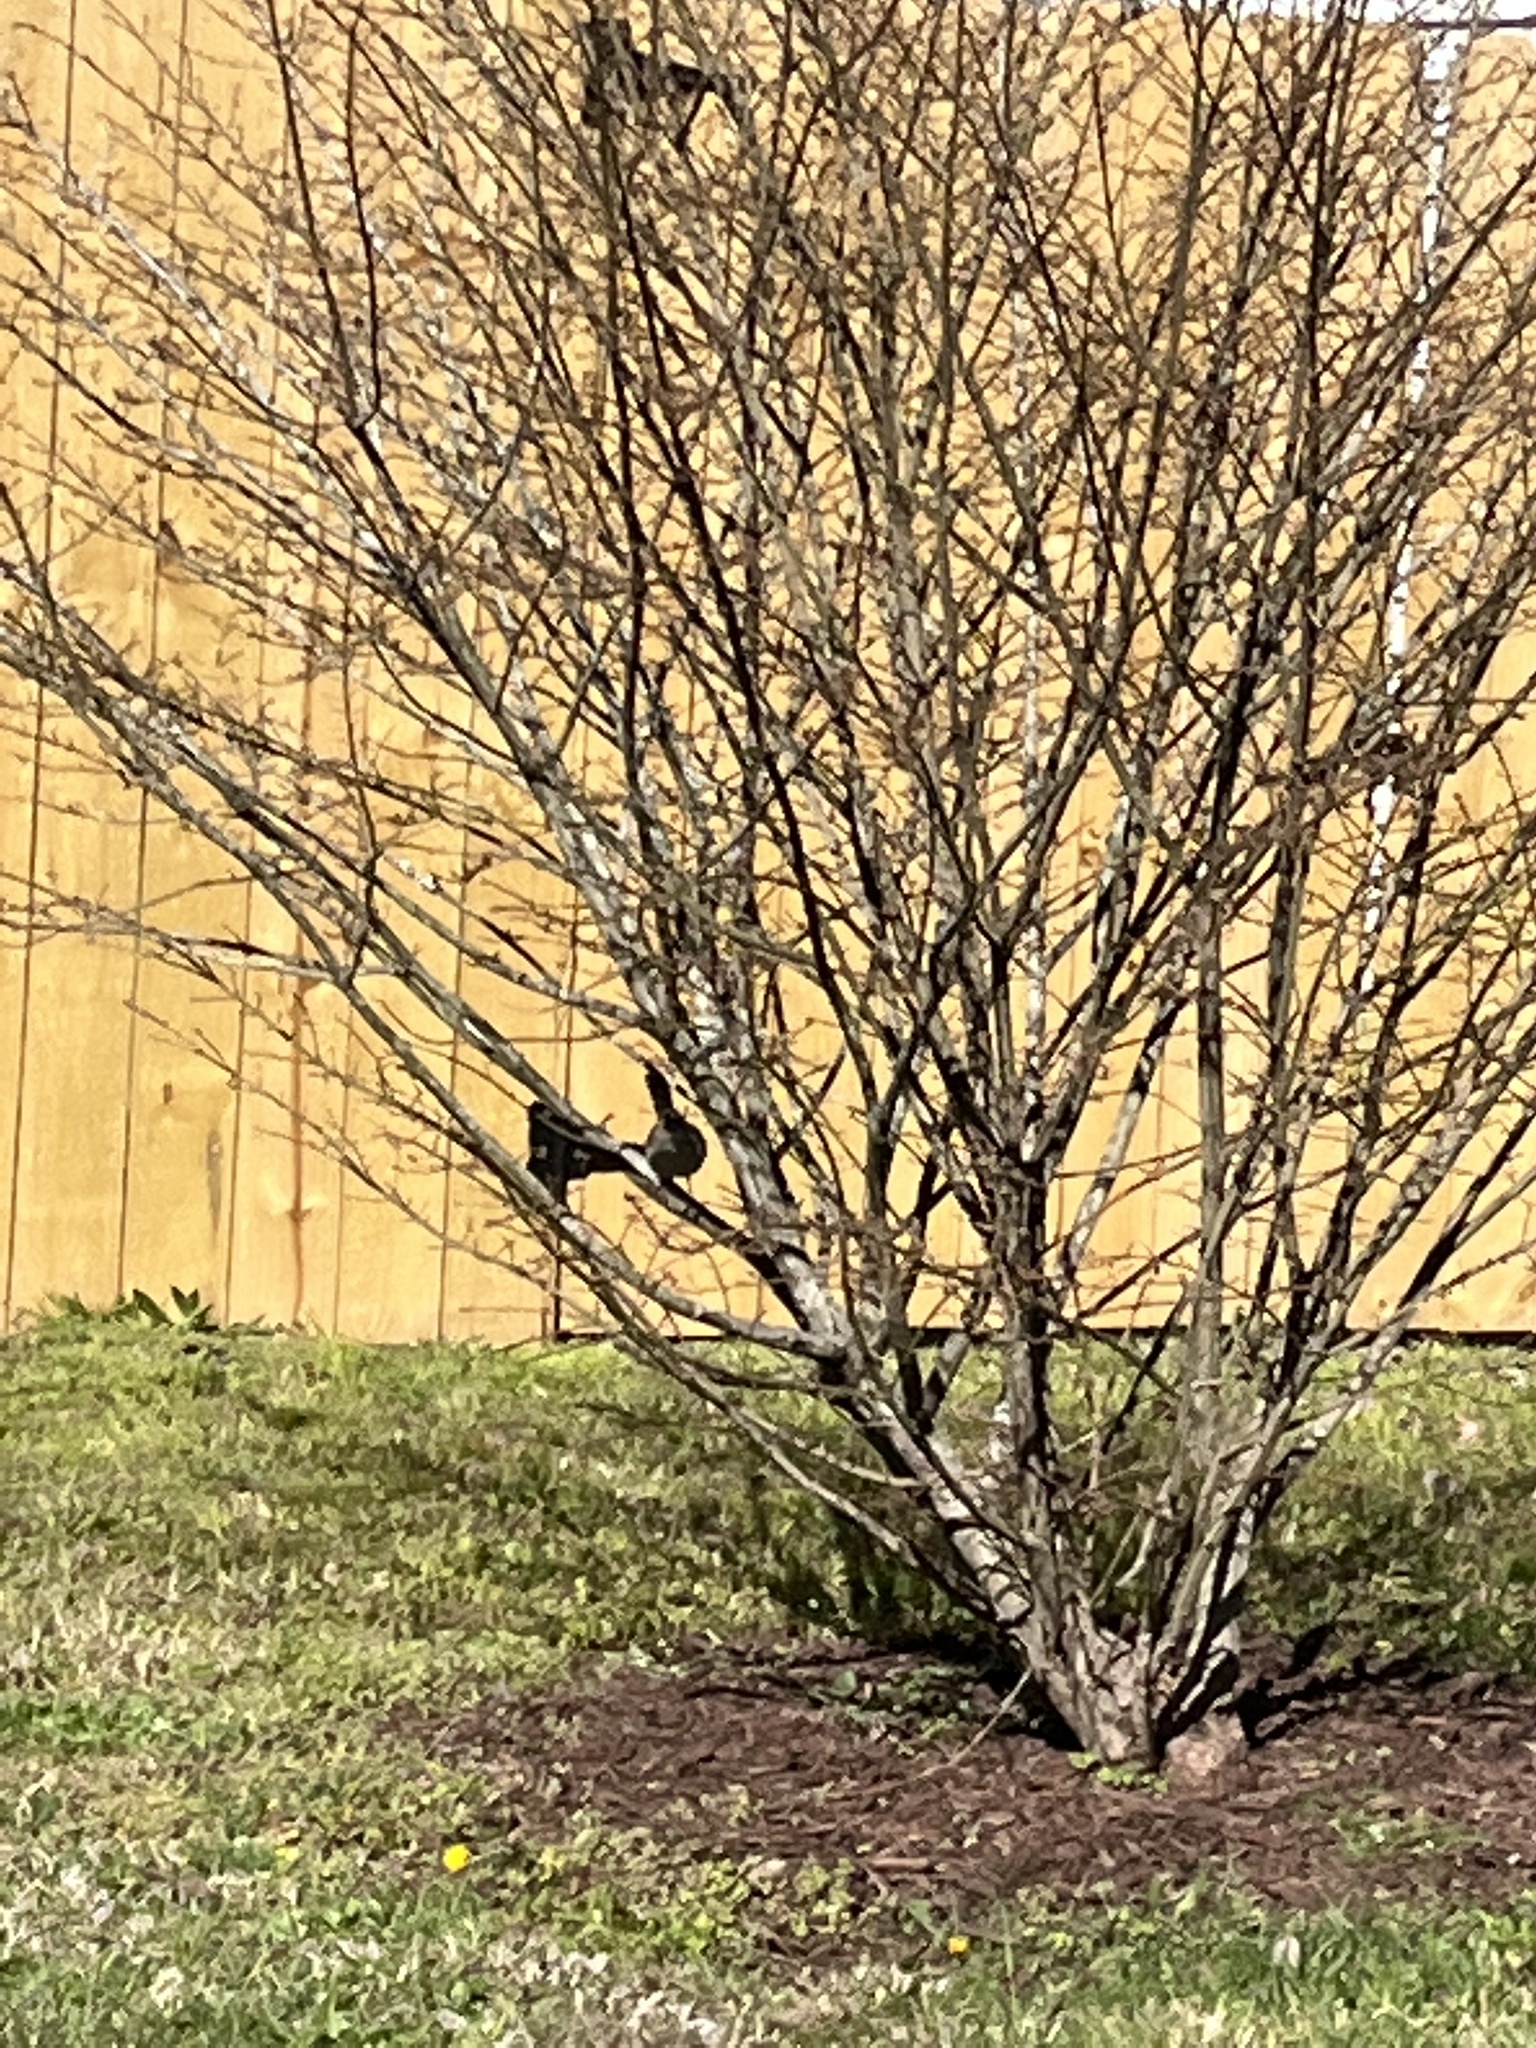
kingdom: Animalia
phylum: Chordata
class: Aves
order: Passeriformes
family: Mimidae
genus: Mimus
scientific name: Mimus polyglottos
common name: Northern mockingbird
